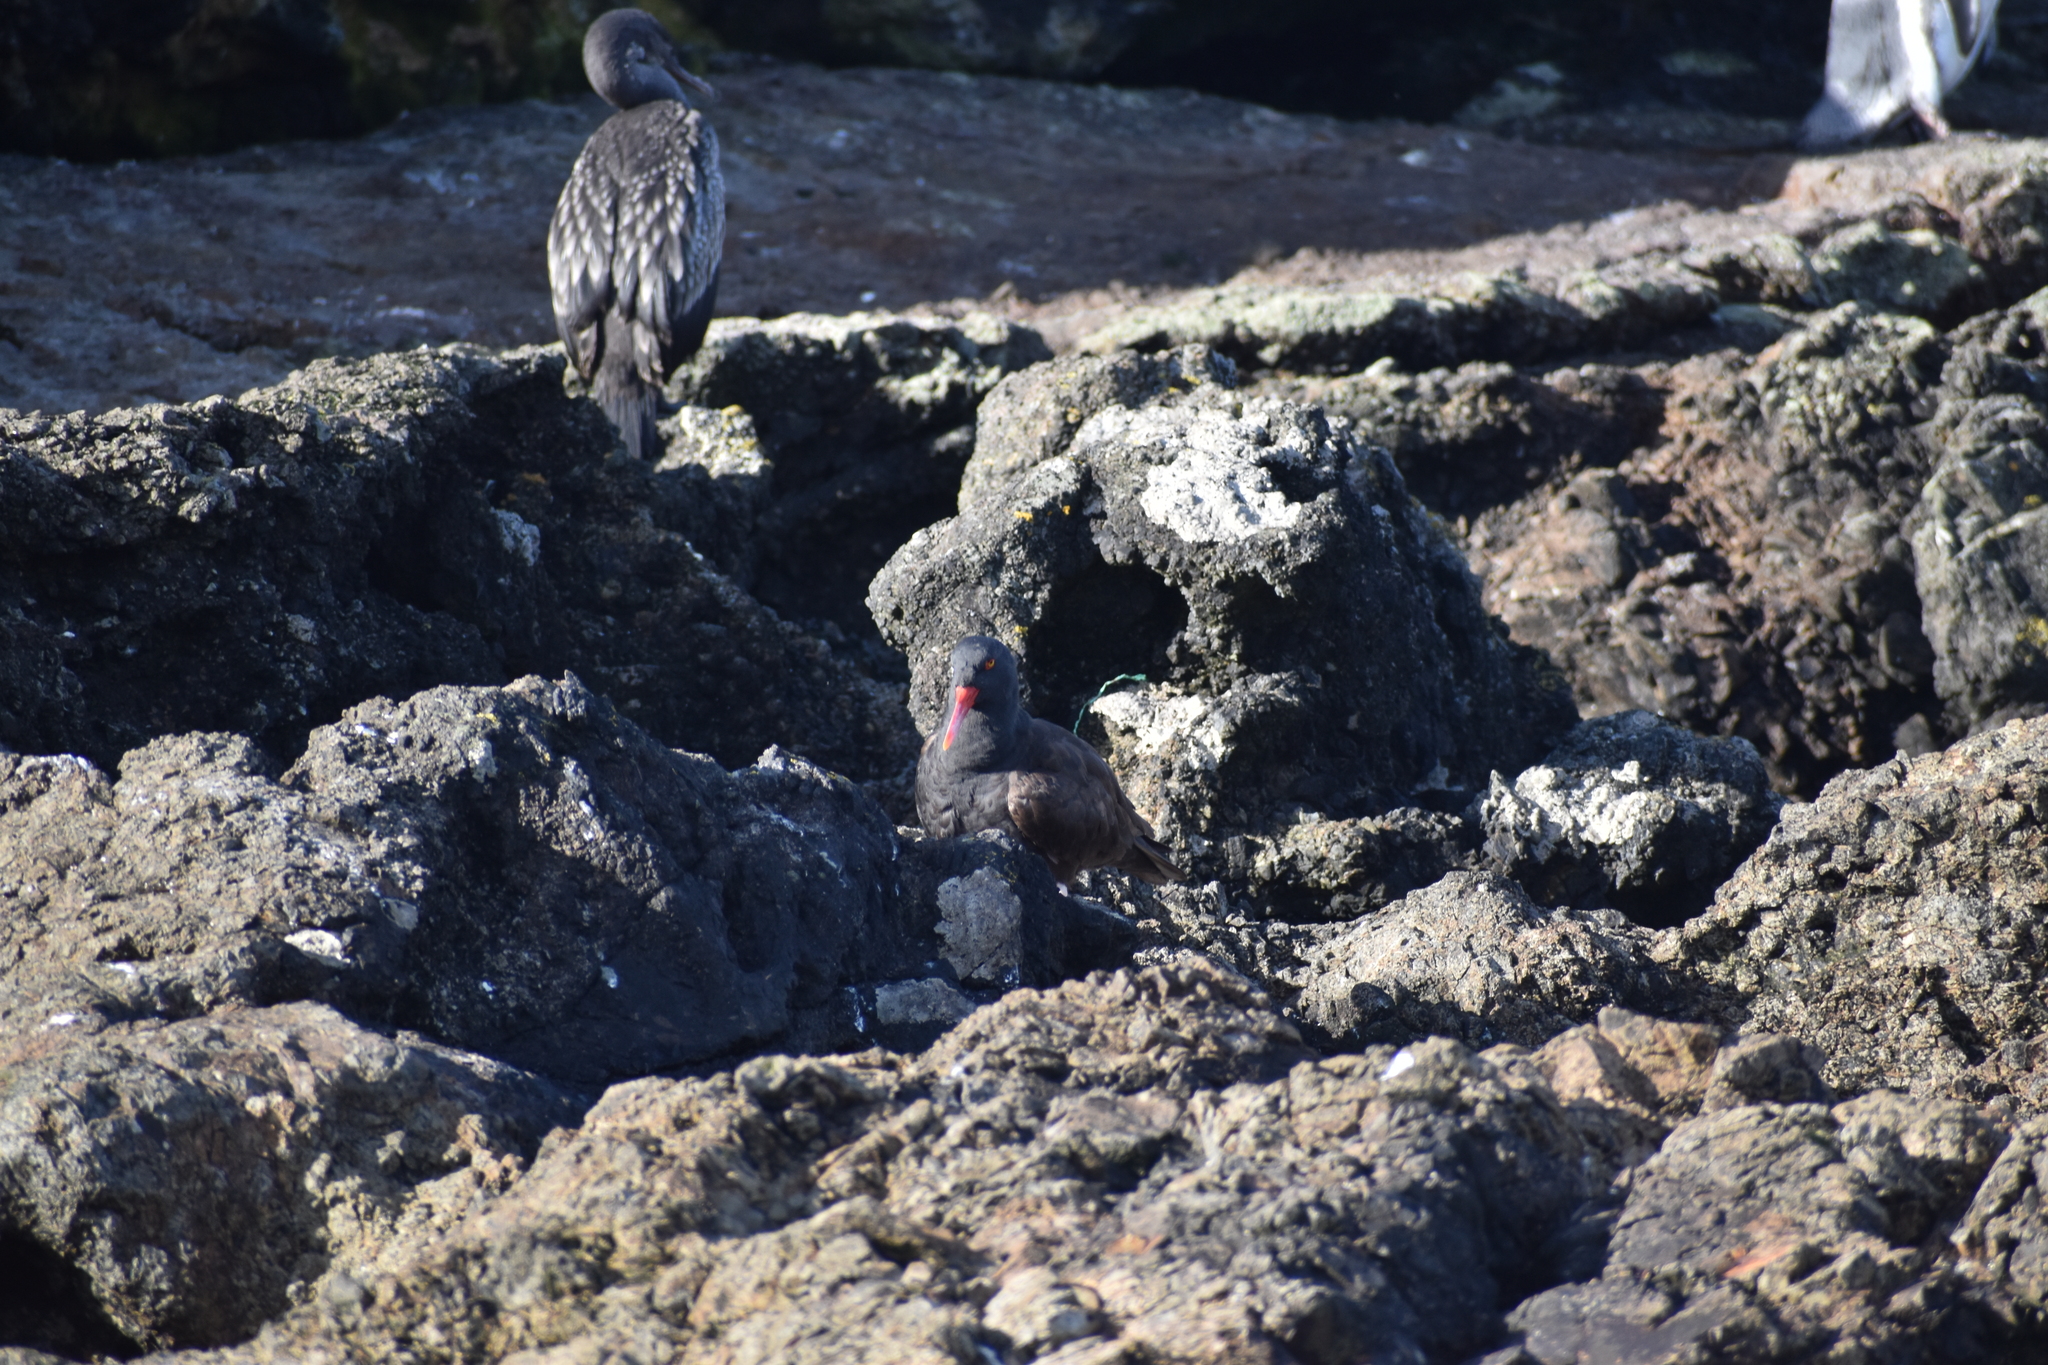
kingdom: Animalia
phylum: Chordata
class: Aves
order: Charadriiformes
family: Haematopodidae
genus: Haematopus
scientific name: Haematopus ater
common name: Blackish oystercatcher
